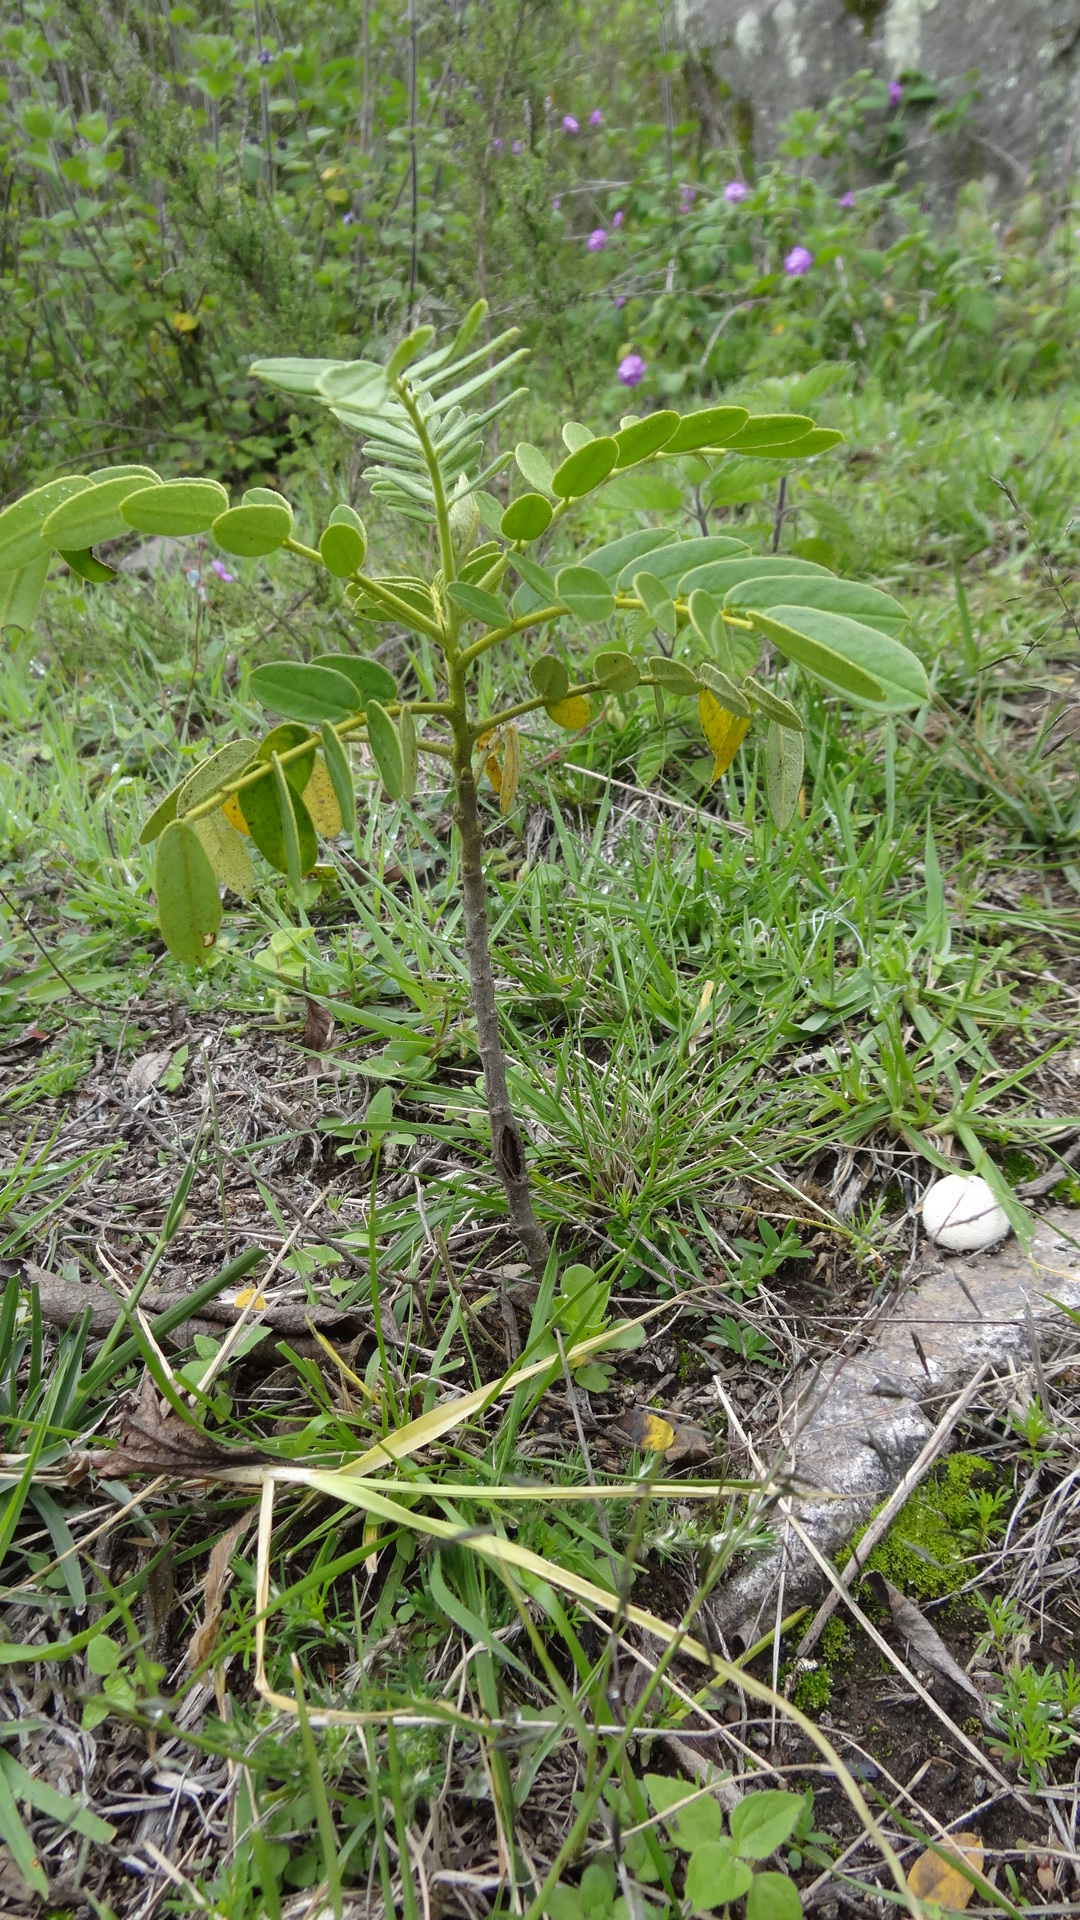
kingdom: Plantae
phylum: Tracheophyta
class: Magnoliopsida
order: Fabales
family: Fabaceae
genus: Senna
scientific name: Senna multiglandulosa
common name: Glandular senna
